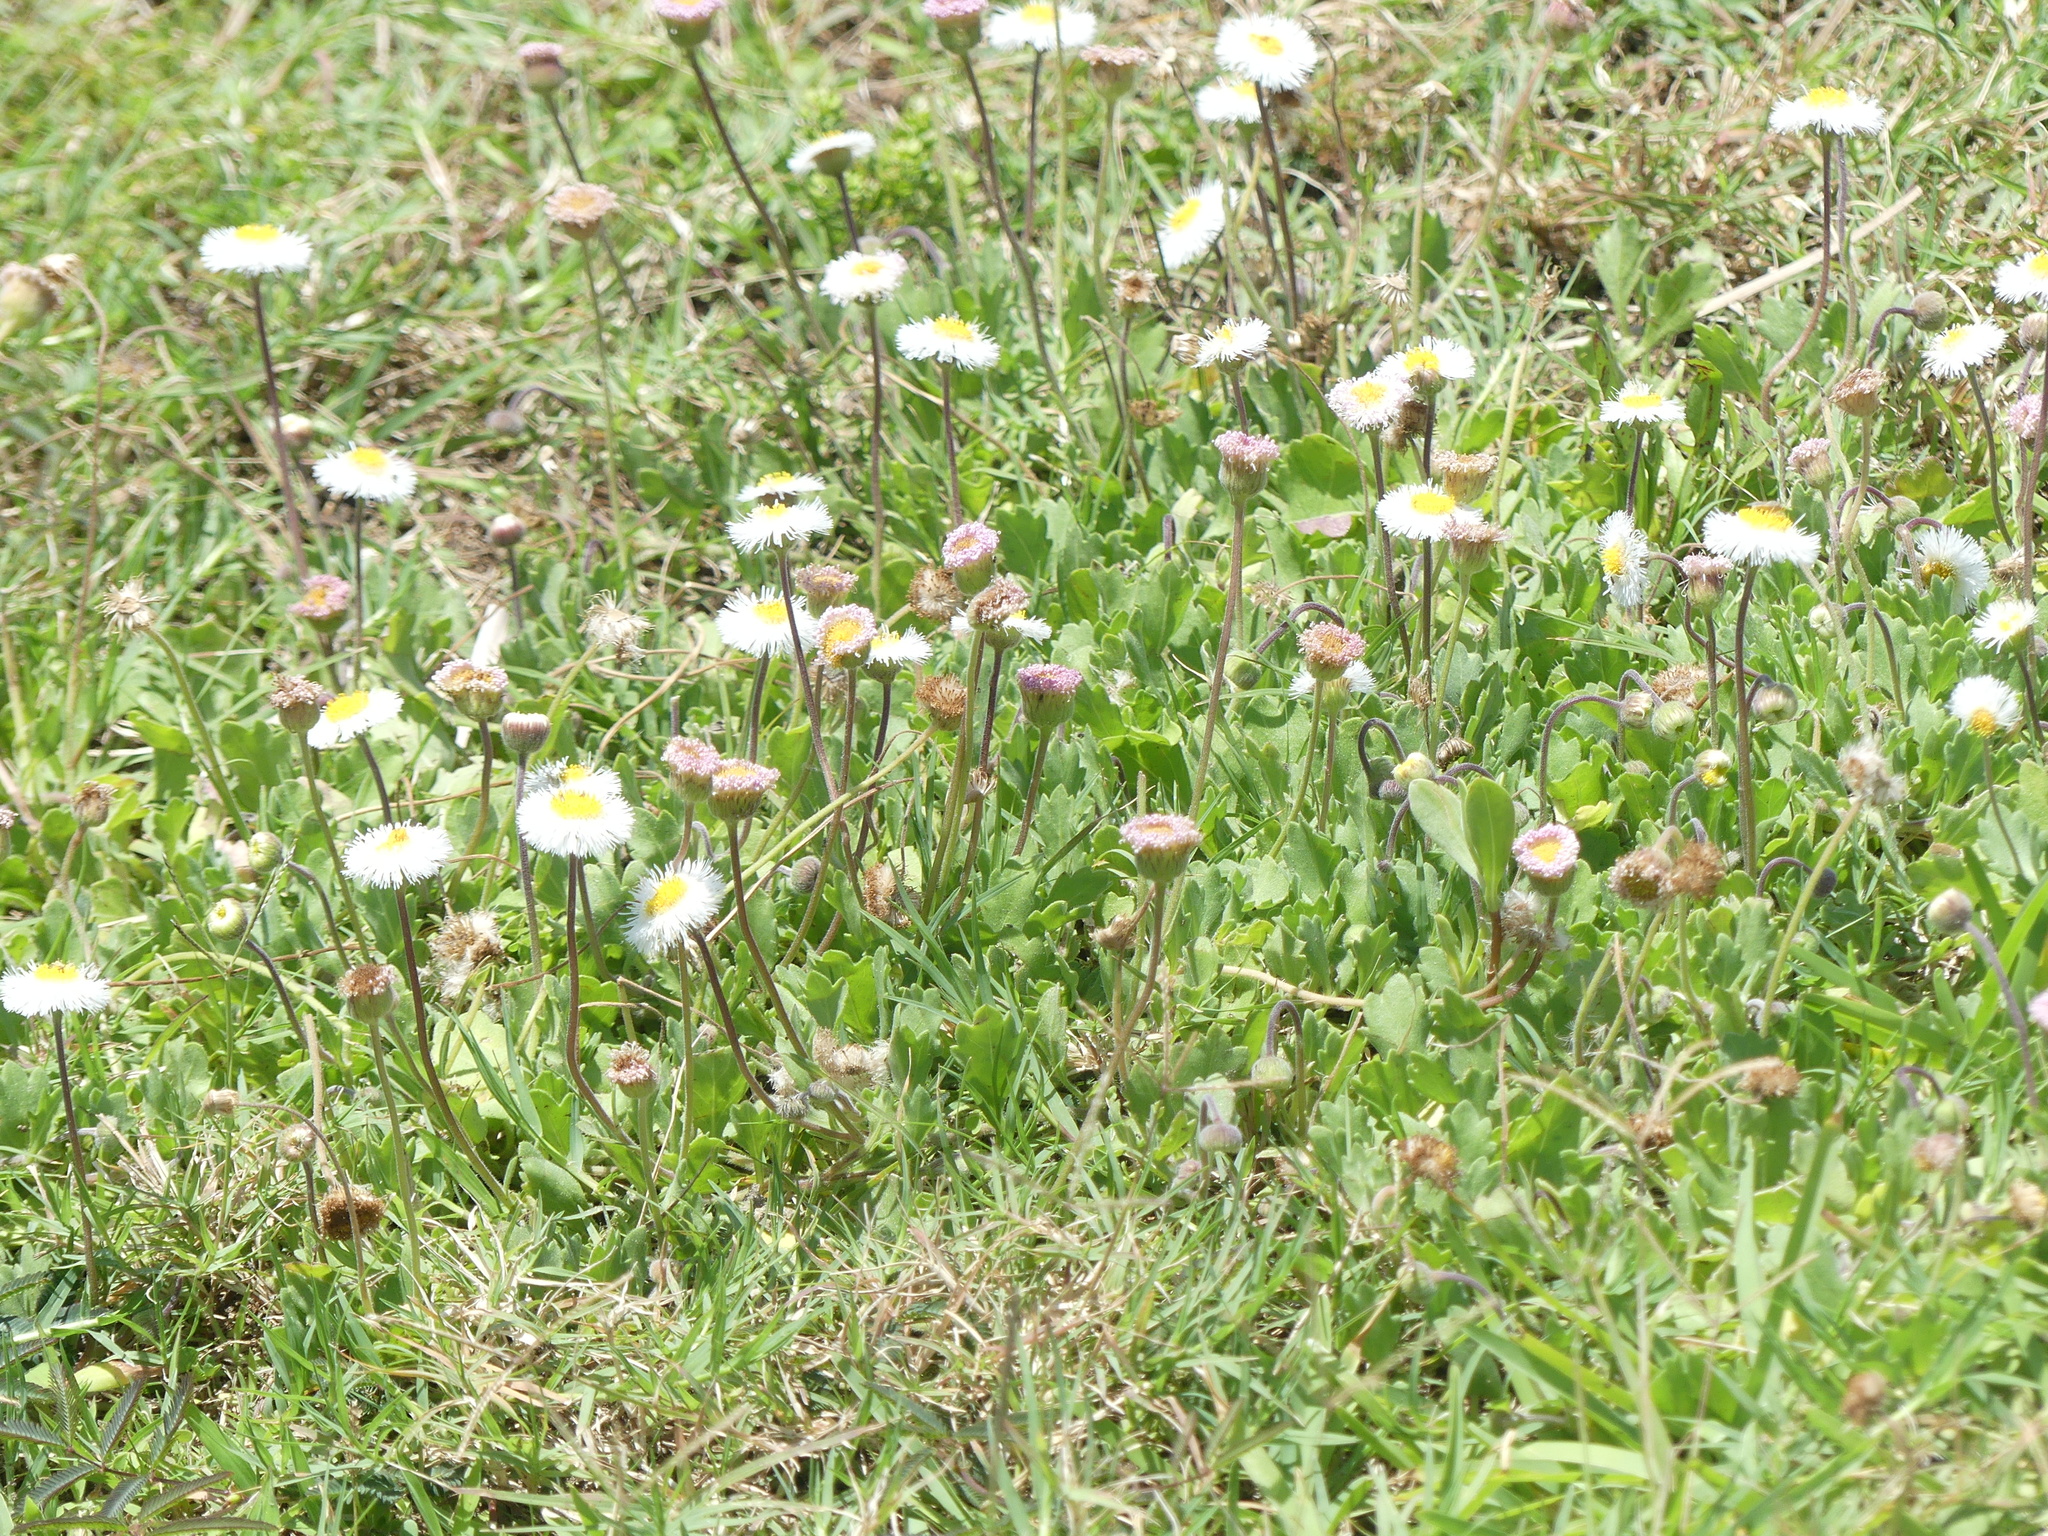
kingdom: Plantae
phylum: Tracheophyta
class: Magnoliopsida
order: Asterales
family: Asteraceae
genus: Erigeron
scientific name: Erigeron procumbens
